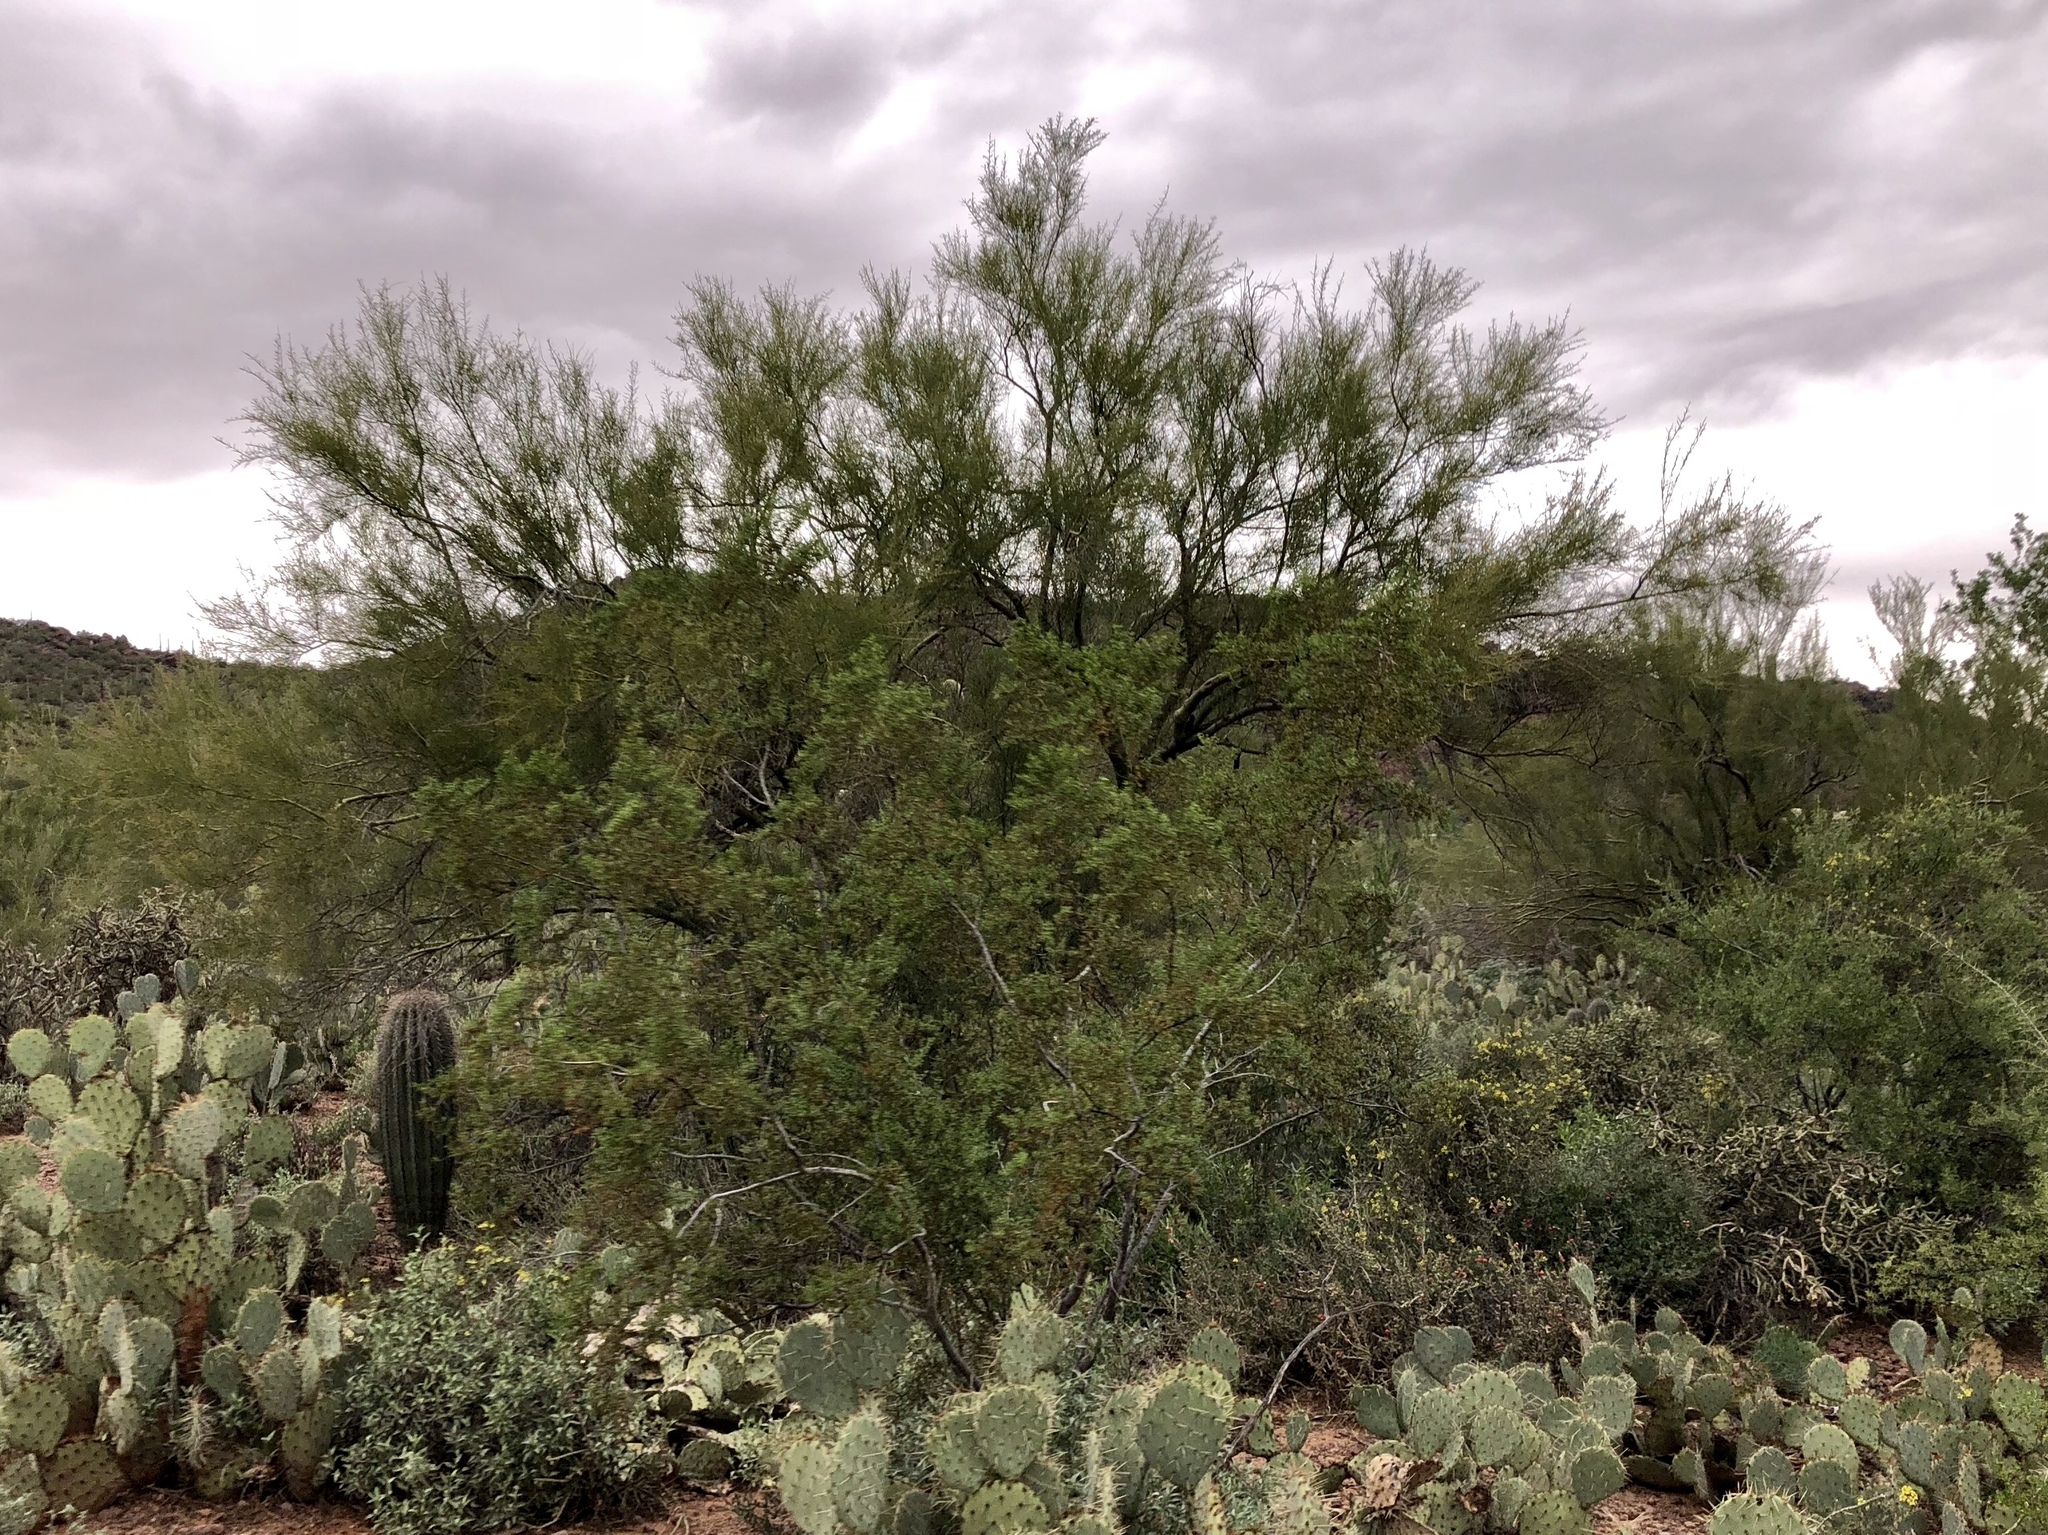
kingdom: Plantae
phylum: Tracheophyta
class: Magnoliopsida
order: Fabales
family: Fabaceae
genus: Parkinsonia
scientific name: Parkinsonia microphylla
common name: Yellow paloverde
